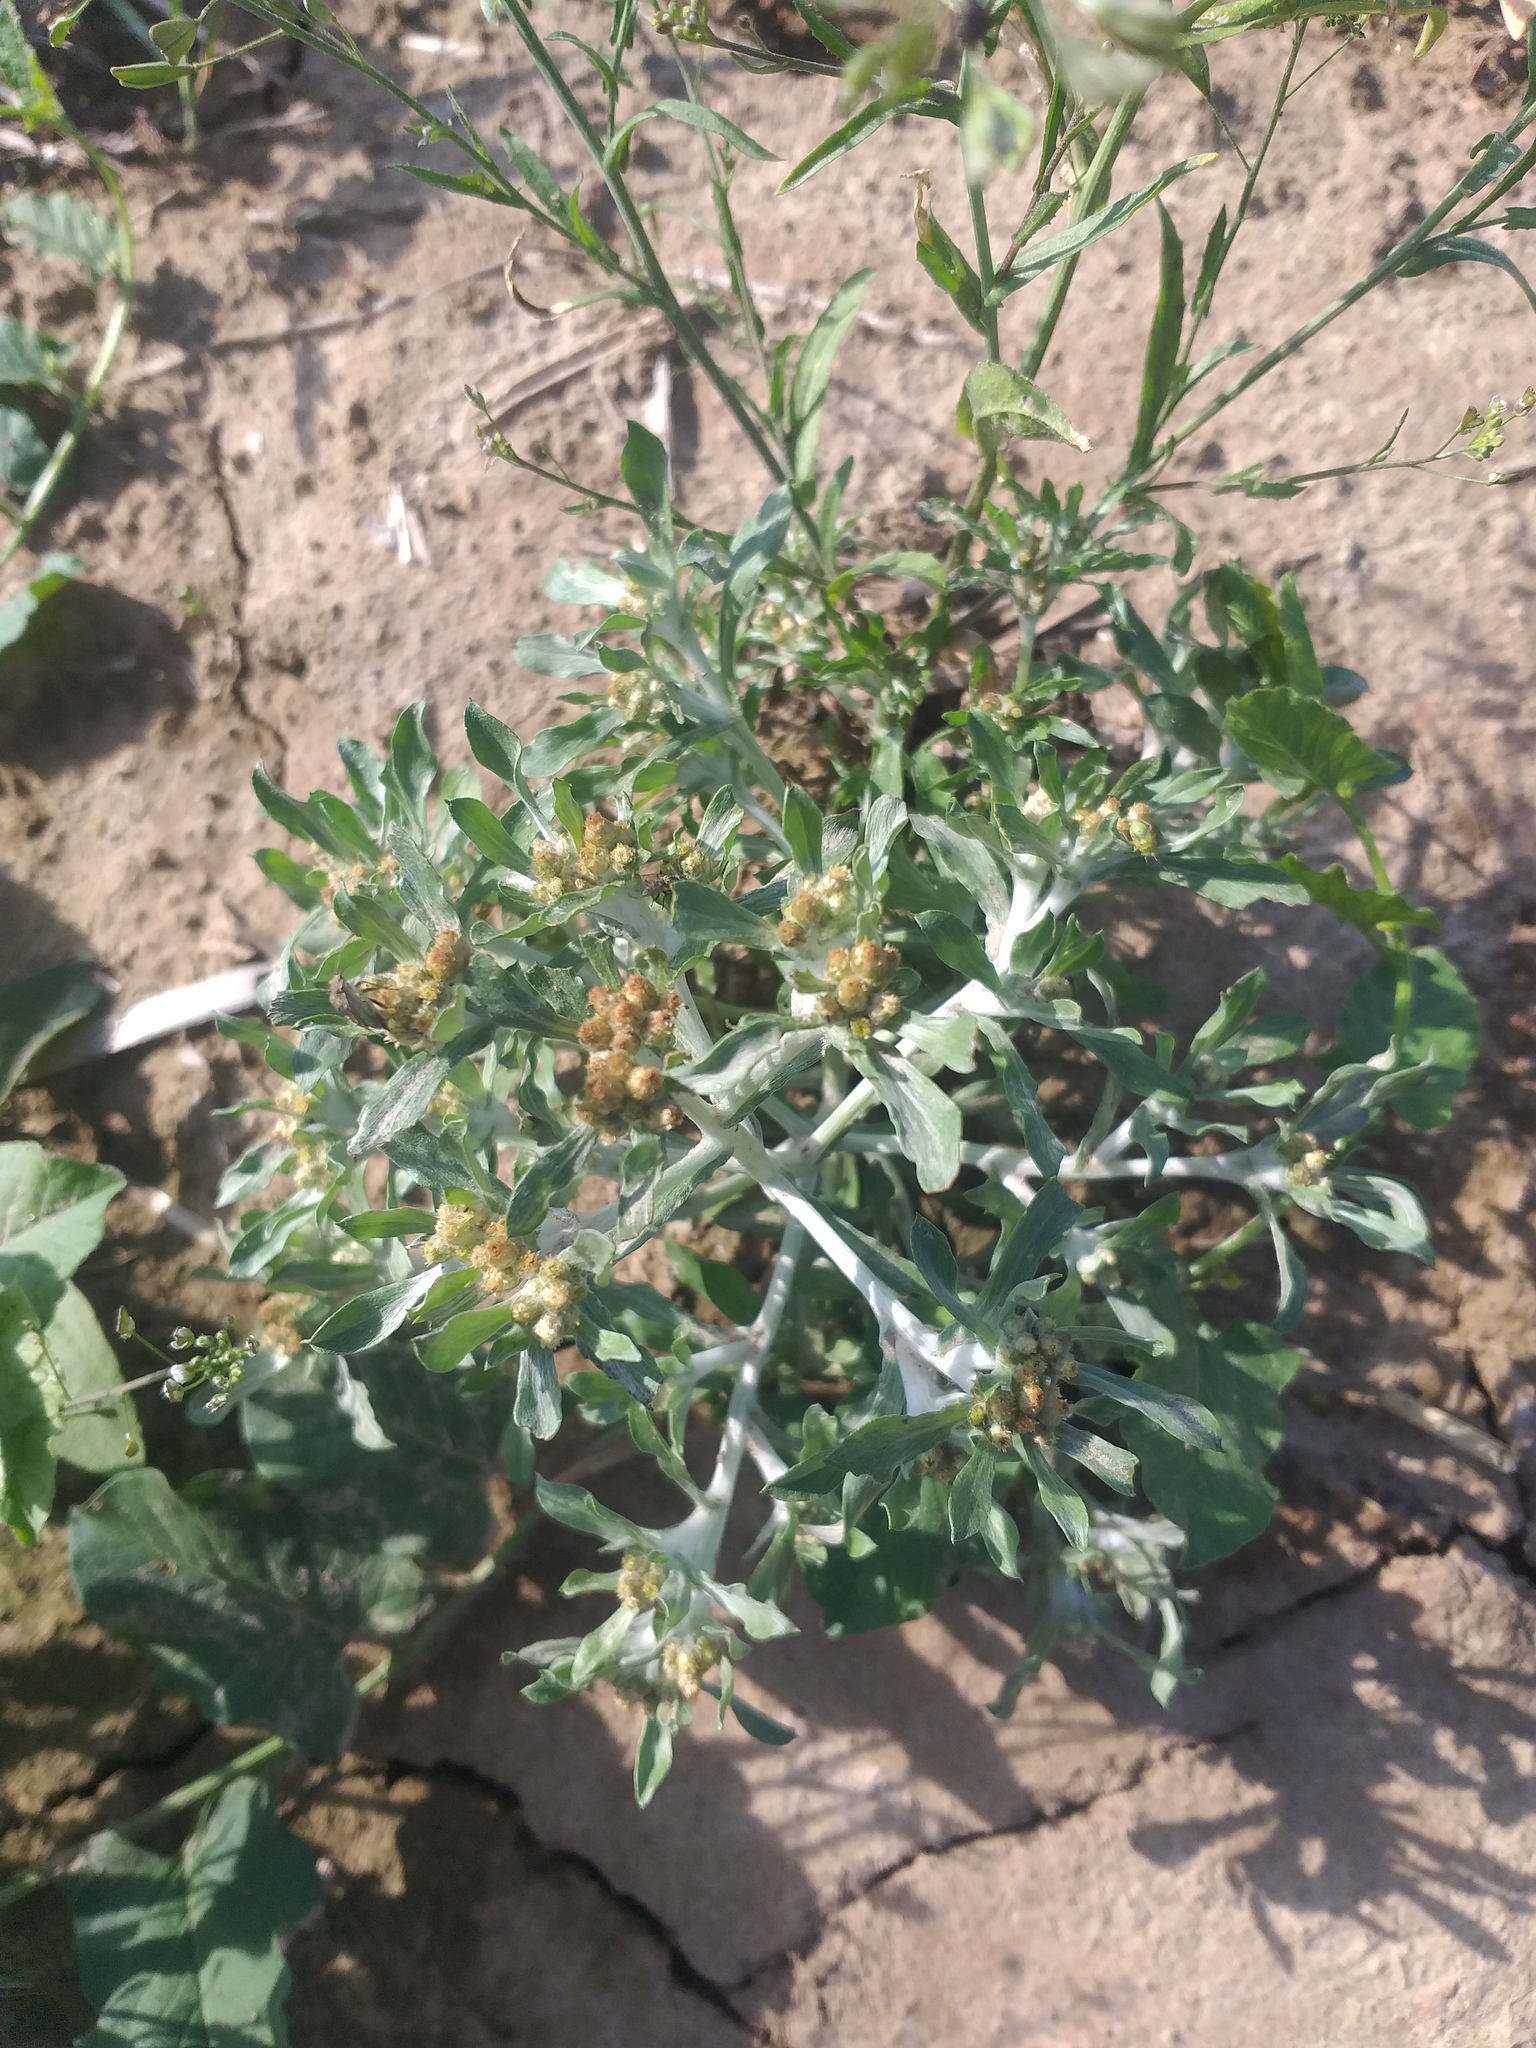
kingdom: Plantae
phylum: Tracheophyta
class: Magnoliopsida
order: Asterales
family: Asteraceae
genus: Gnaphalium
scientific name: Gnaphalium rossicum
